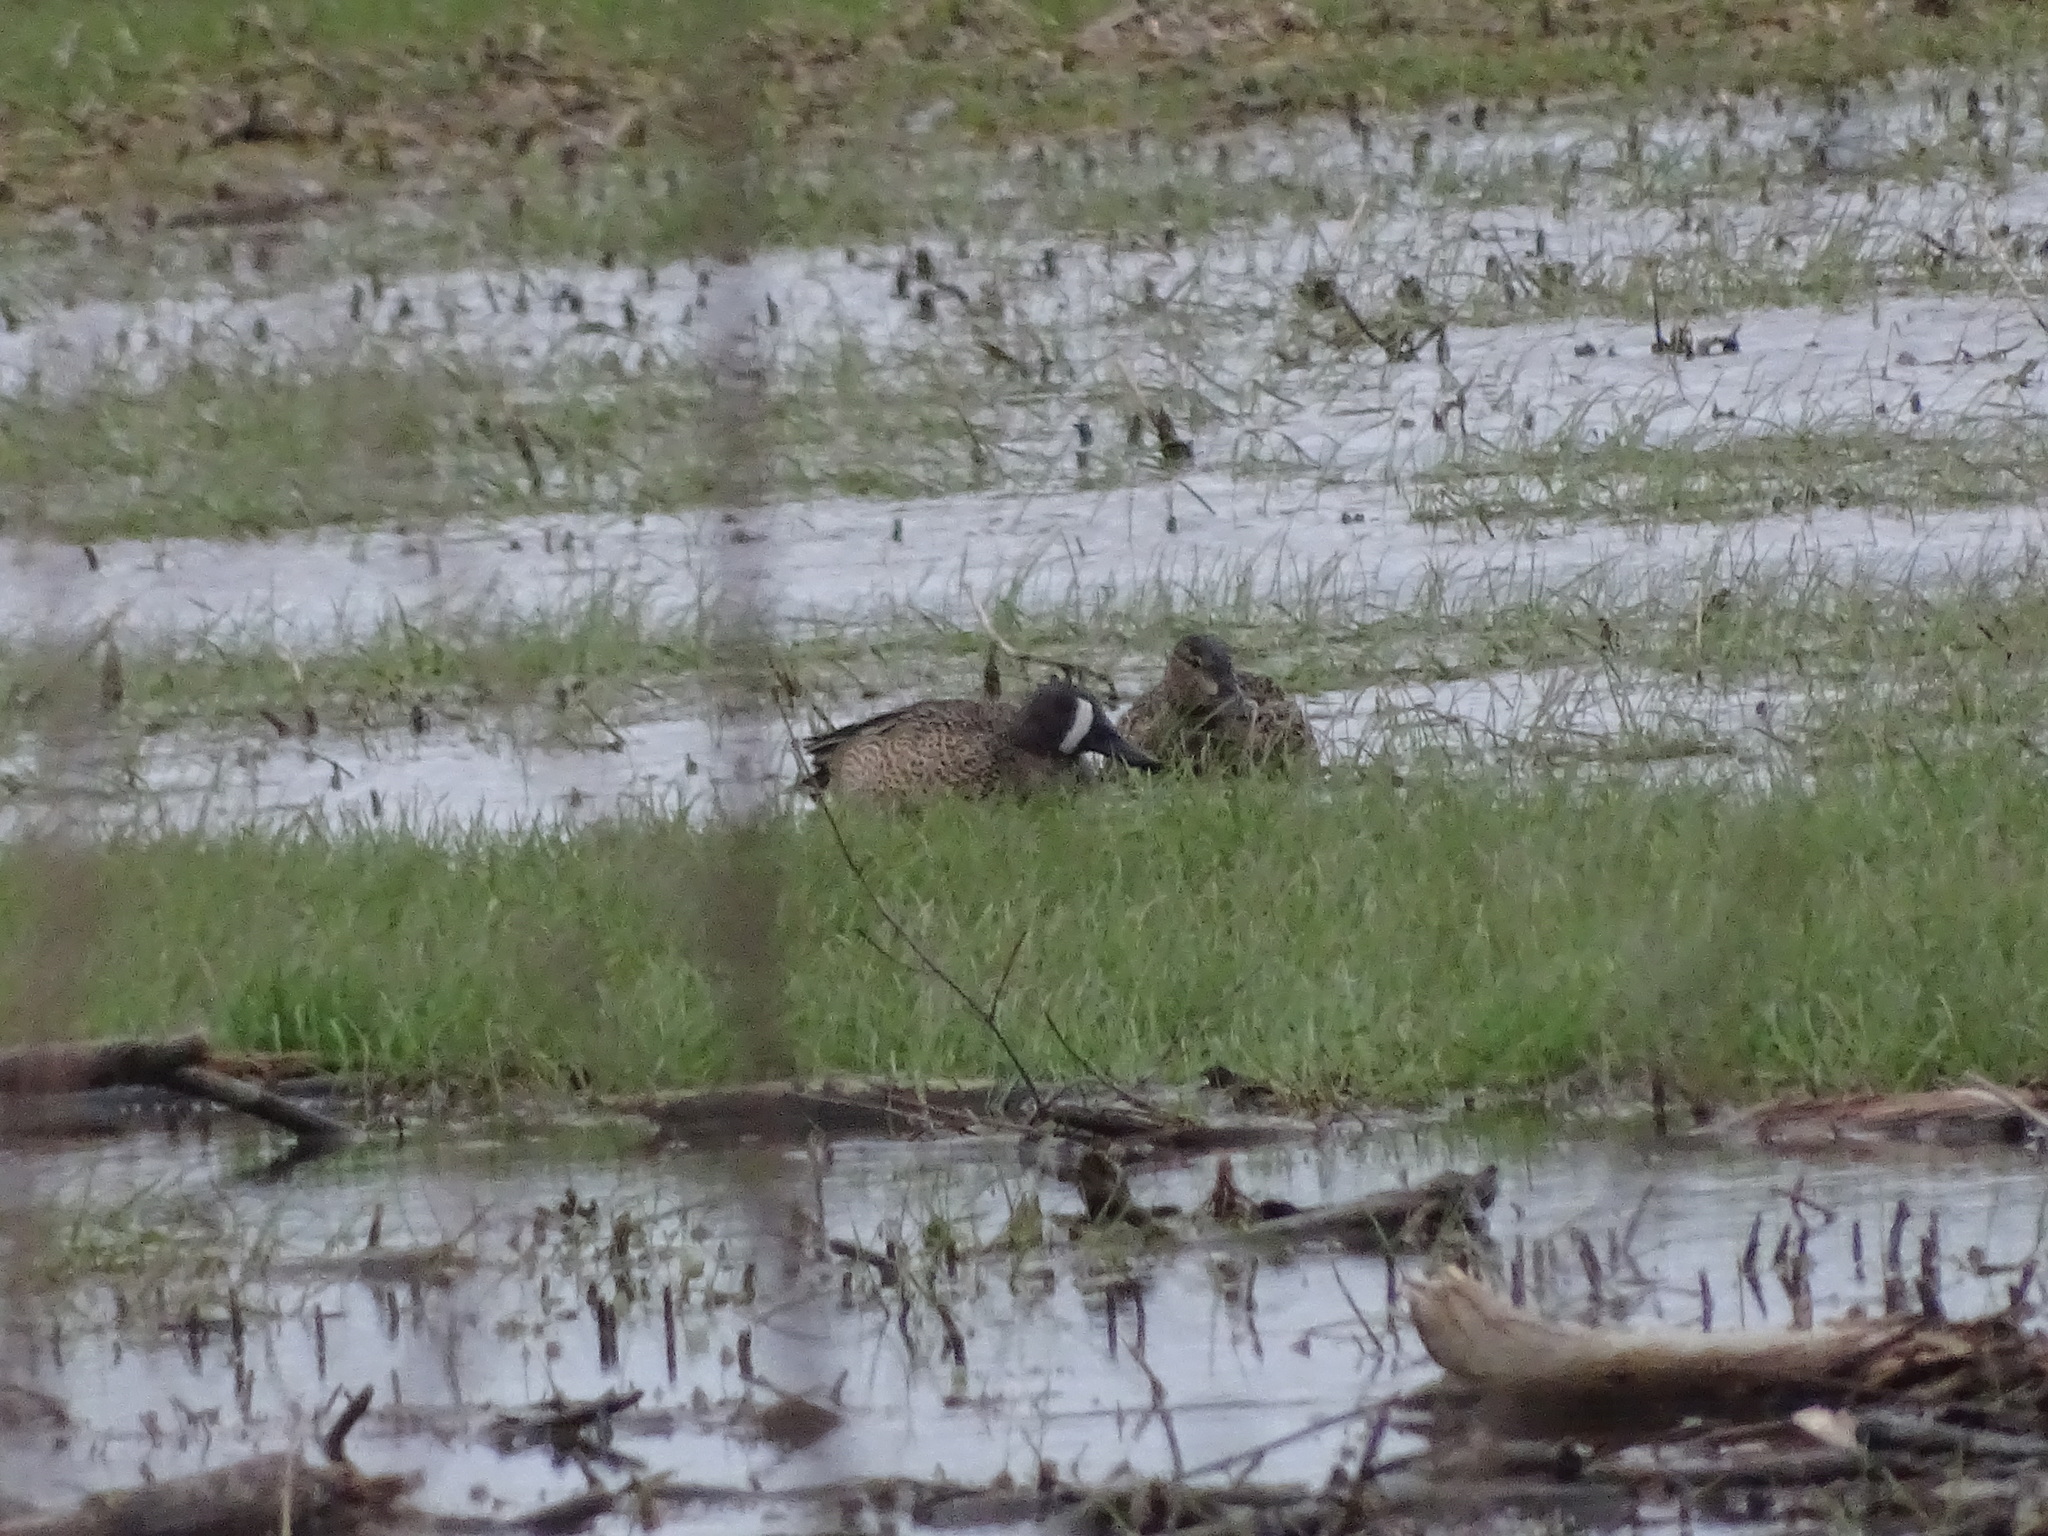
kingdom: Animalia
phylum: Chordata
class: Aves
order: Anseriformes
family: Anatidae
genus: Spatula
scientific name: Spatula discors
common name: Blue-winged teal
